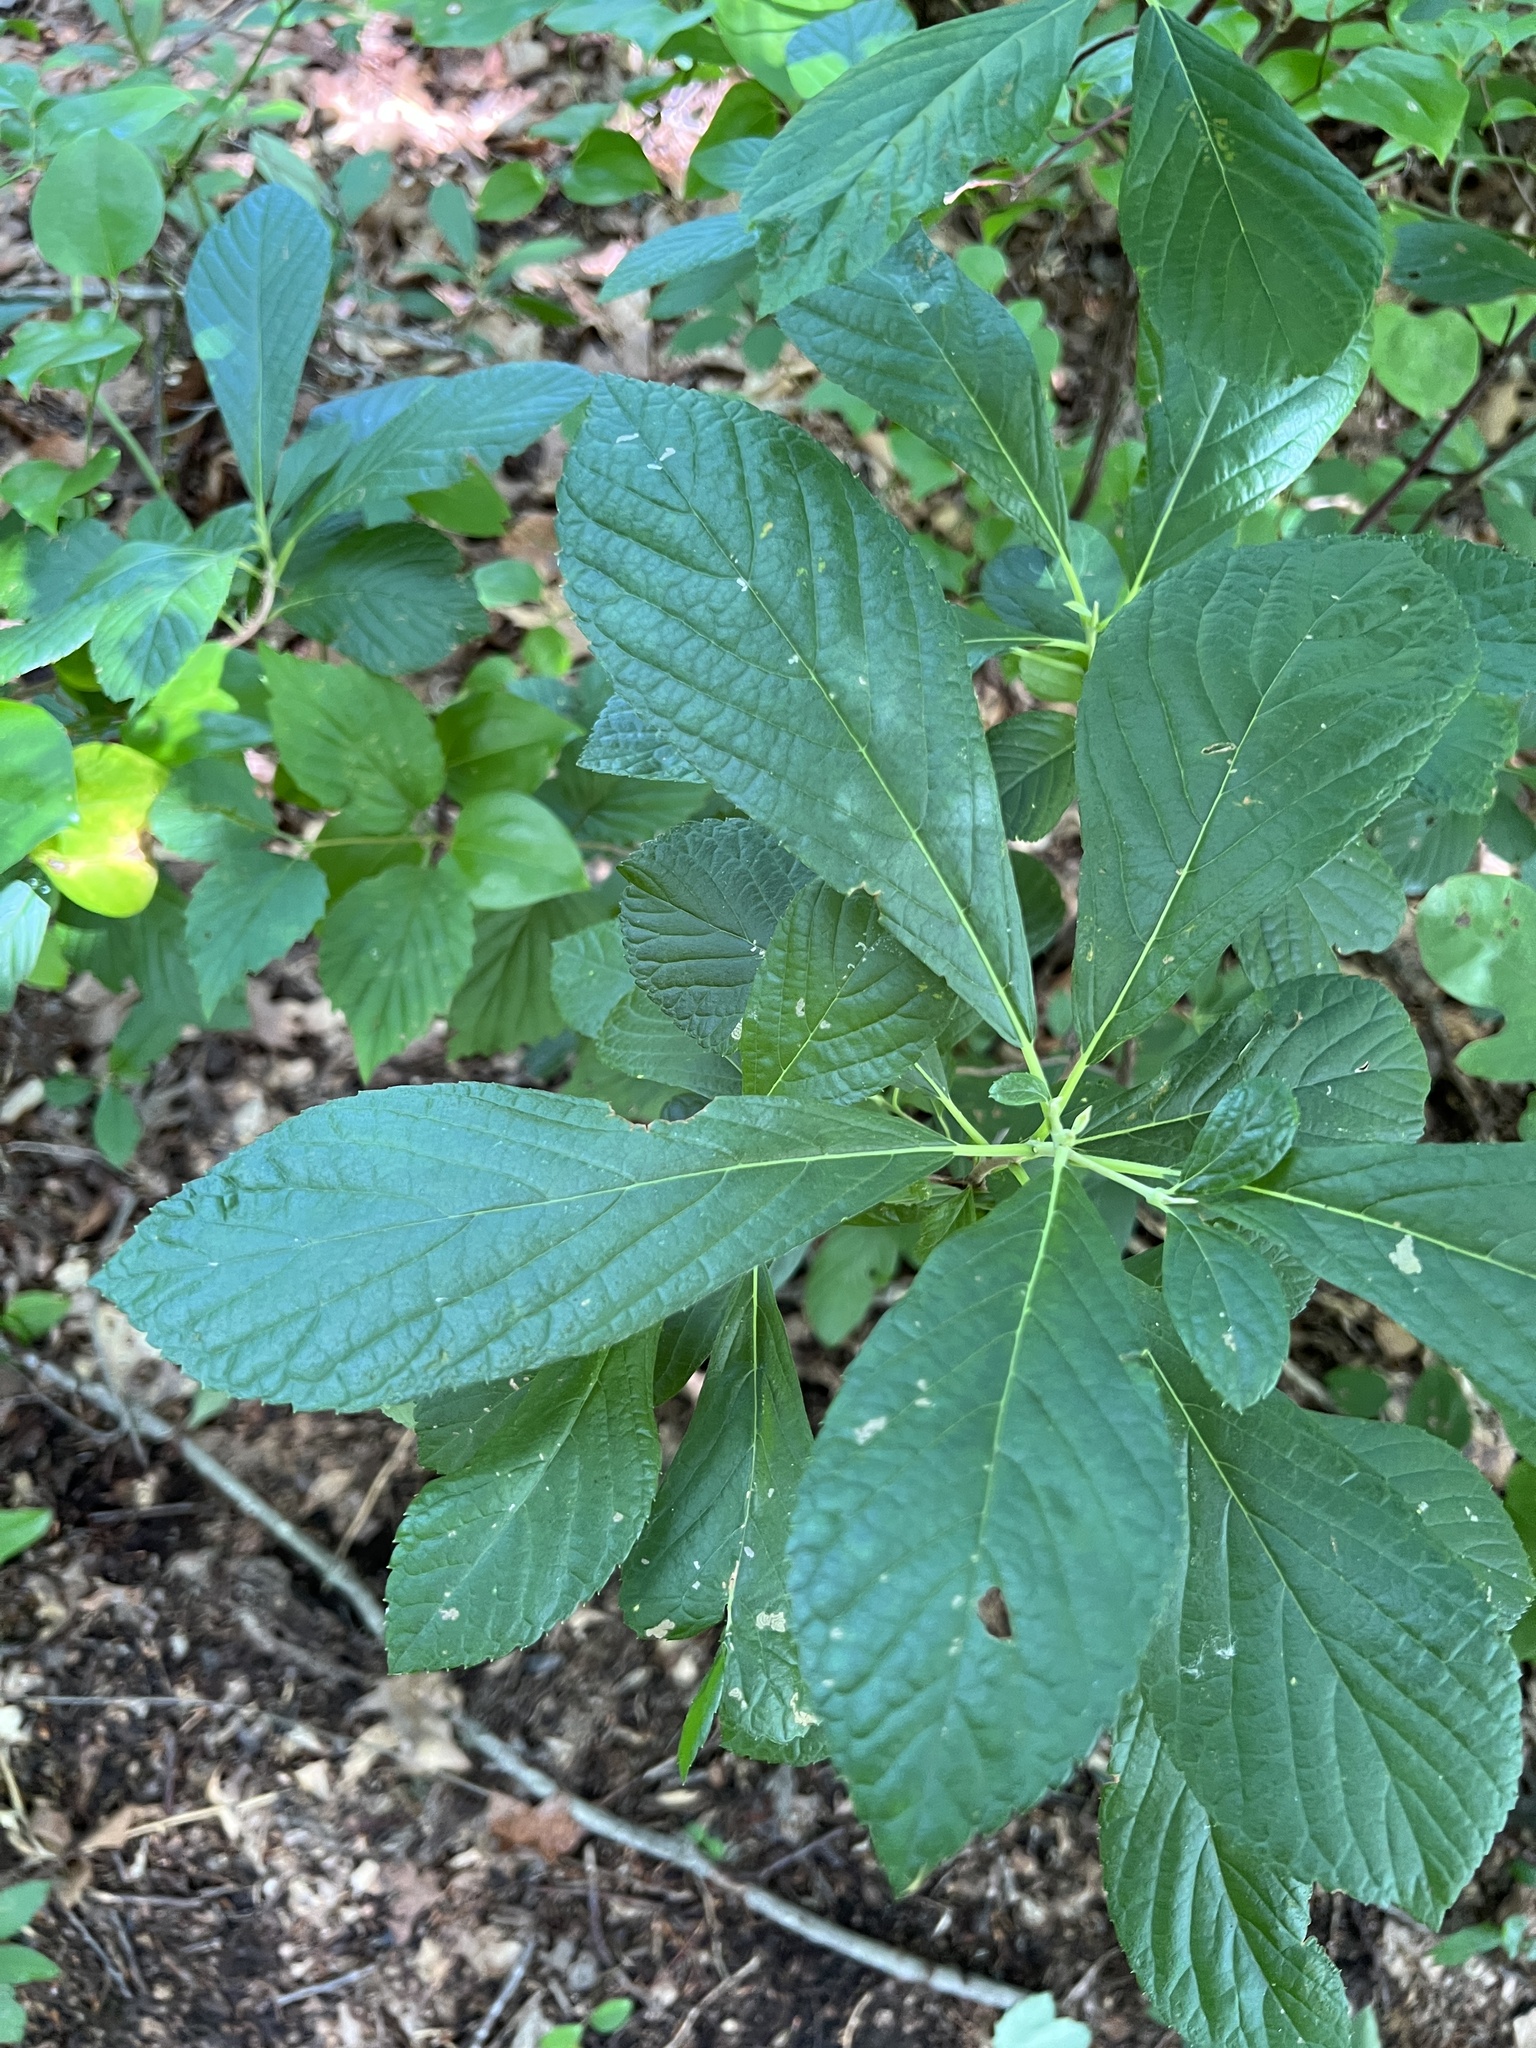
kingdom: Plantae
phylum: Tracheophyta
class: Magnoliopsida
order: Ericales
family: Clethraceae
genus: Clethra
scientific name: Clethra alnifolia
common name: Sweet pepperbush
